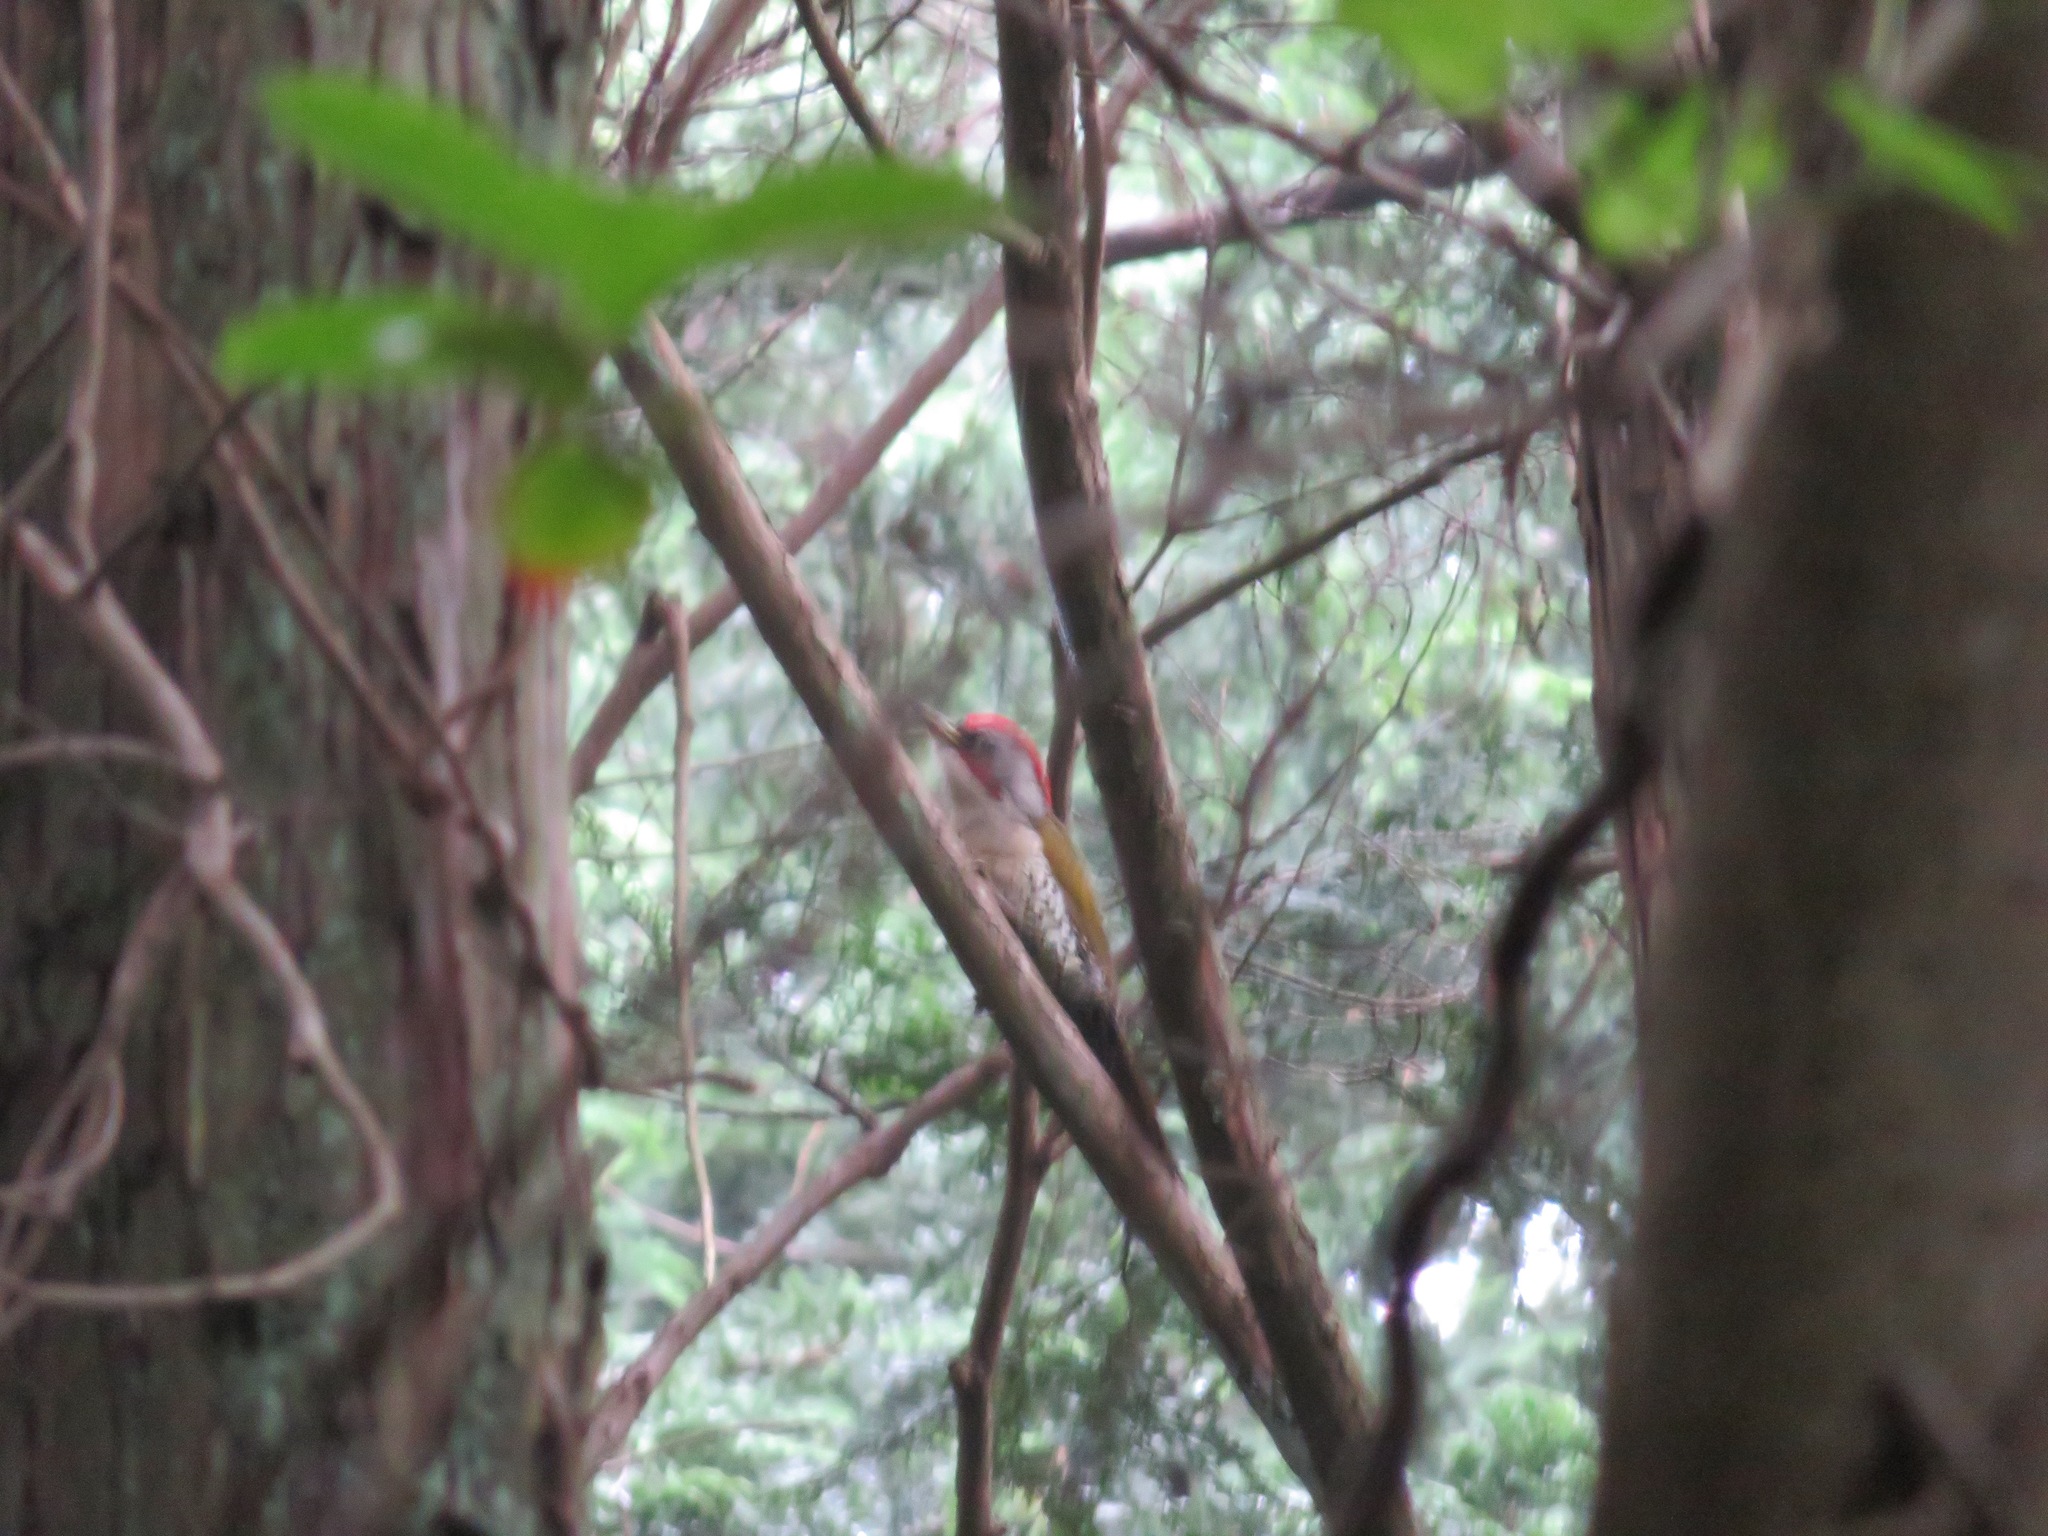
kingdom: Animalia
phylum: Chordata
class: Aves
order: Piciformes
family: Picidae
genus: Picus
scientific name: Picus awokera
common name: Japanese green woodpecker
